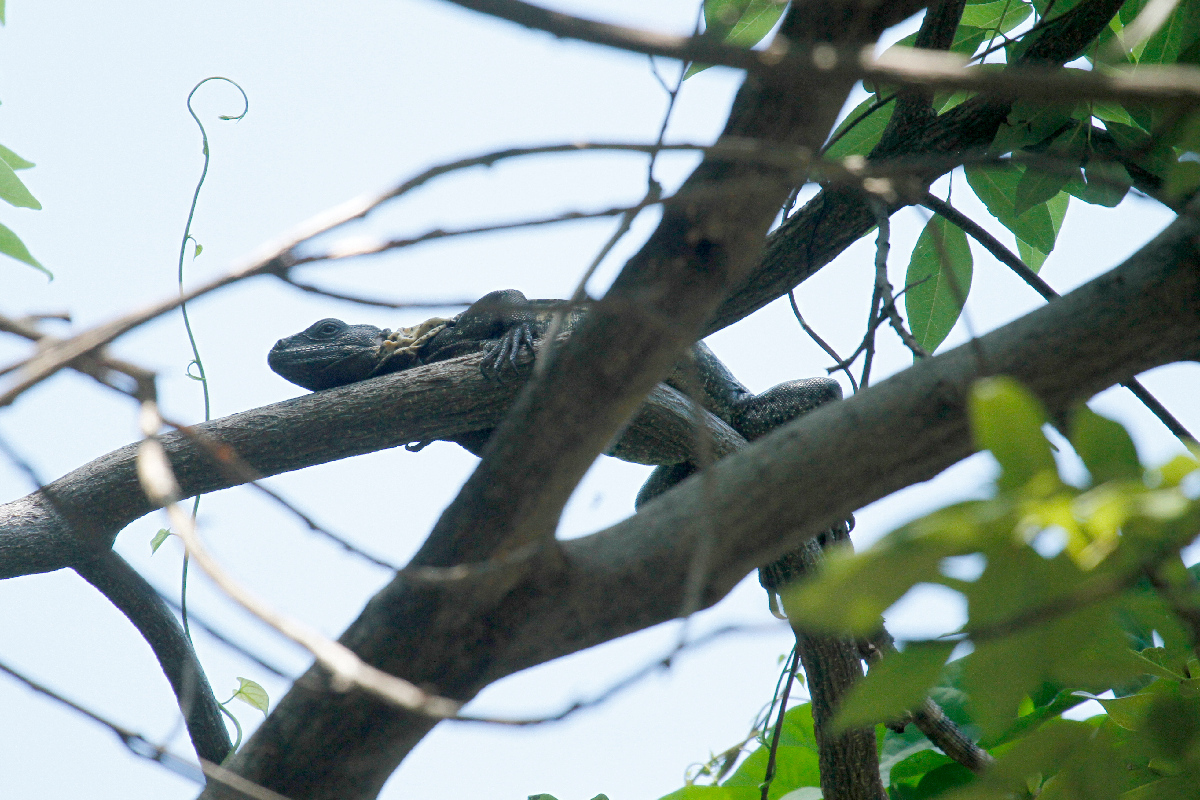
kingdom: Animalia
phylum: Chordata
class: Squamata
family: Iguanidae
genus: Ctenosaura
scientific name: Ctenosaura pectinata
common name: Guerreran spiny-tailed iguana
